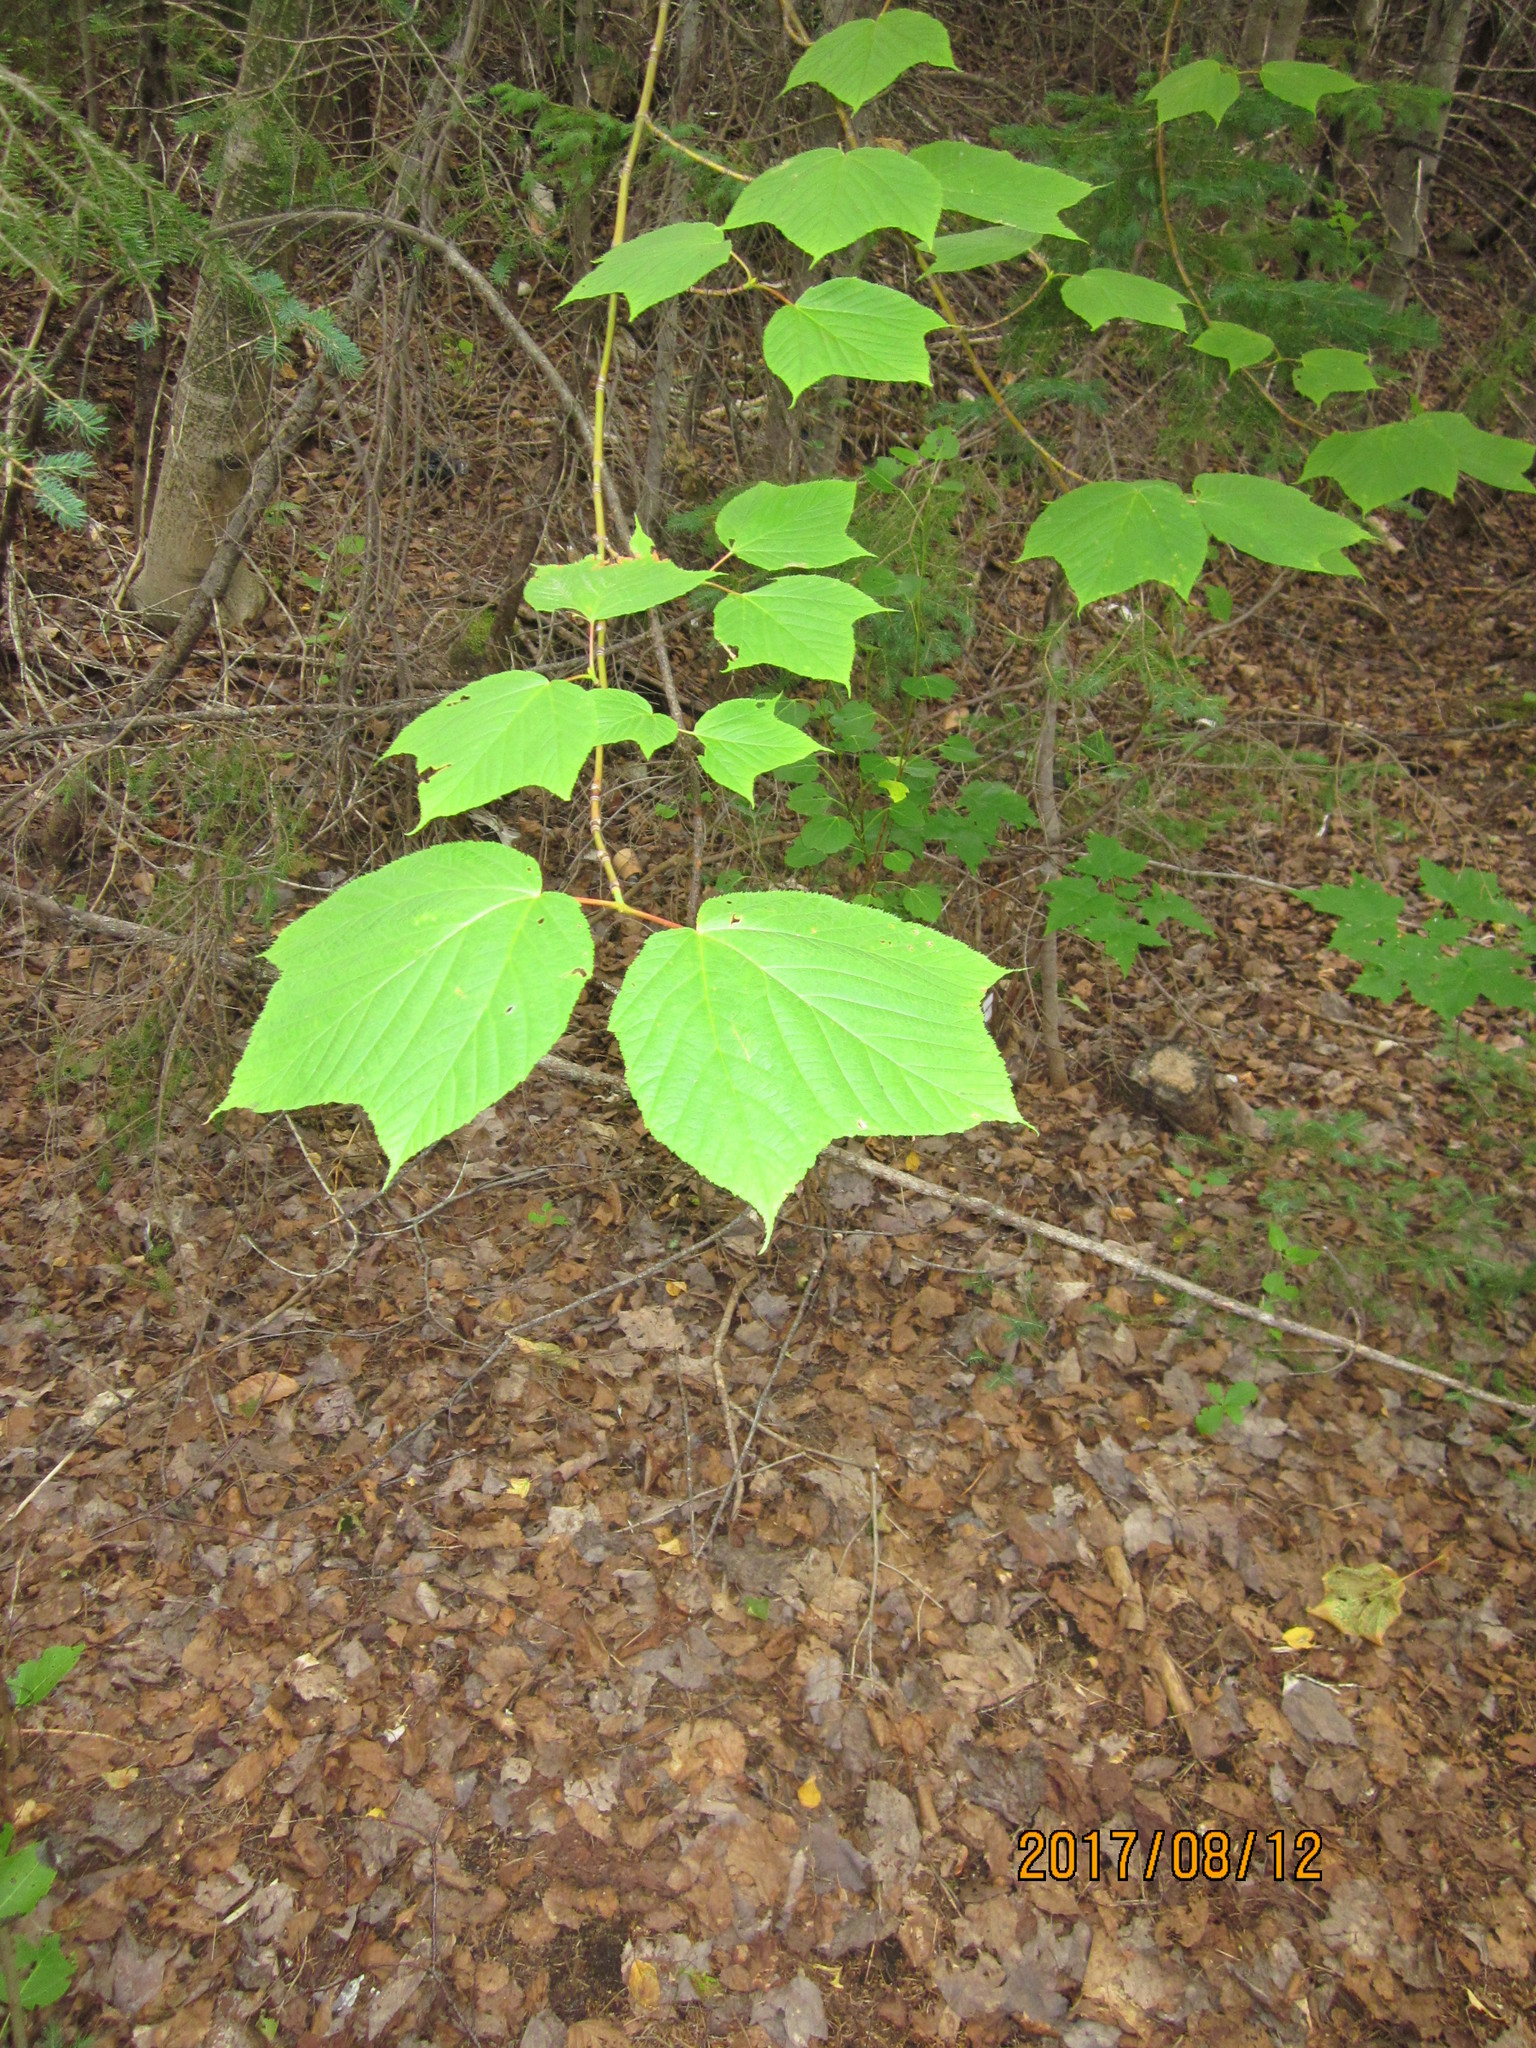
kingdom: Plantae
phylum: Tracheophyta
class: Magnoliopsida
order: Sapindales
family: Sapindaceae
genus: Acer
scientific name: Acer pensylvanicum
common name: Moosewood
